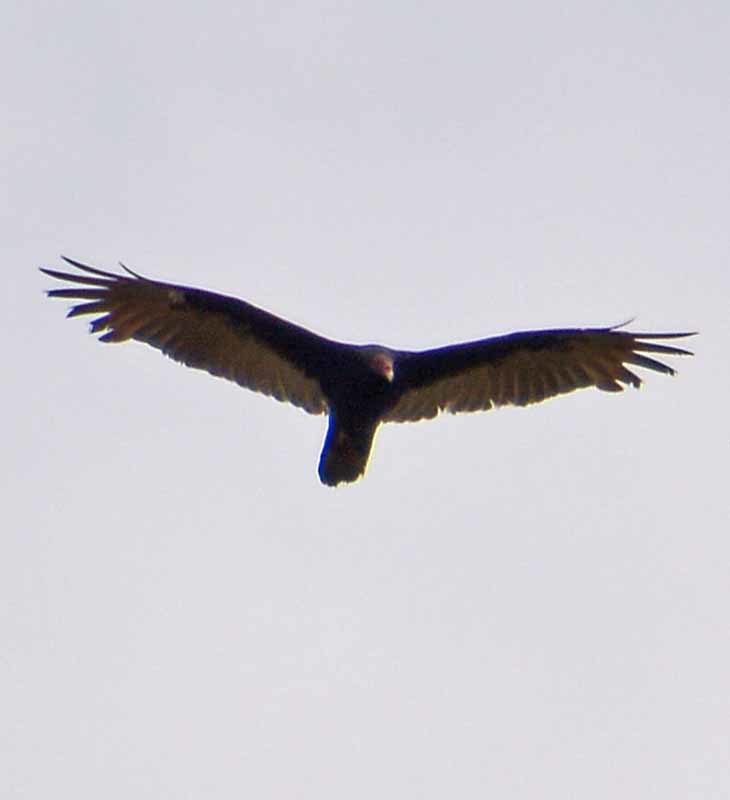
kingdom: Animalia
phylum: Chordata
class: Aves
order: Accipitriformes
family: Cathartidae
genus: Cathartes
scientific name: Cathartes aura
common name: Turkey vulture
